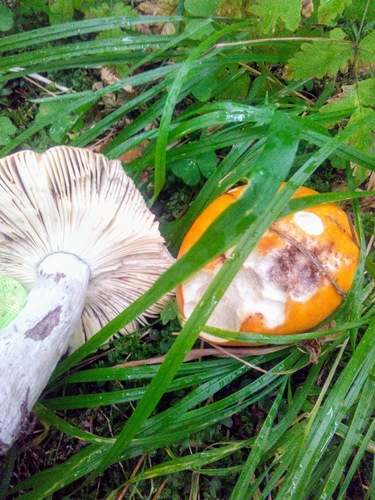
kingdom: Fungi
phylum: Basidiomycota
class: Agaricomycetes
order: Russulales
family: Russulaceae
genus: Russula
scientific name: Russula decolorans
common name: Copper brittlegill
